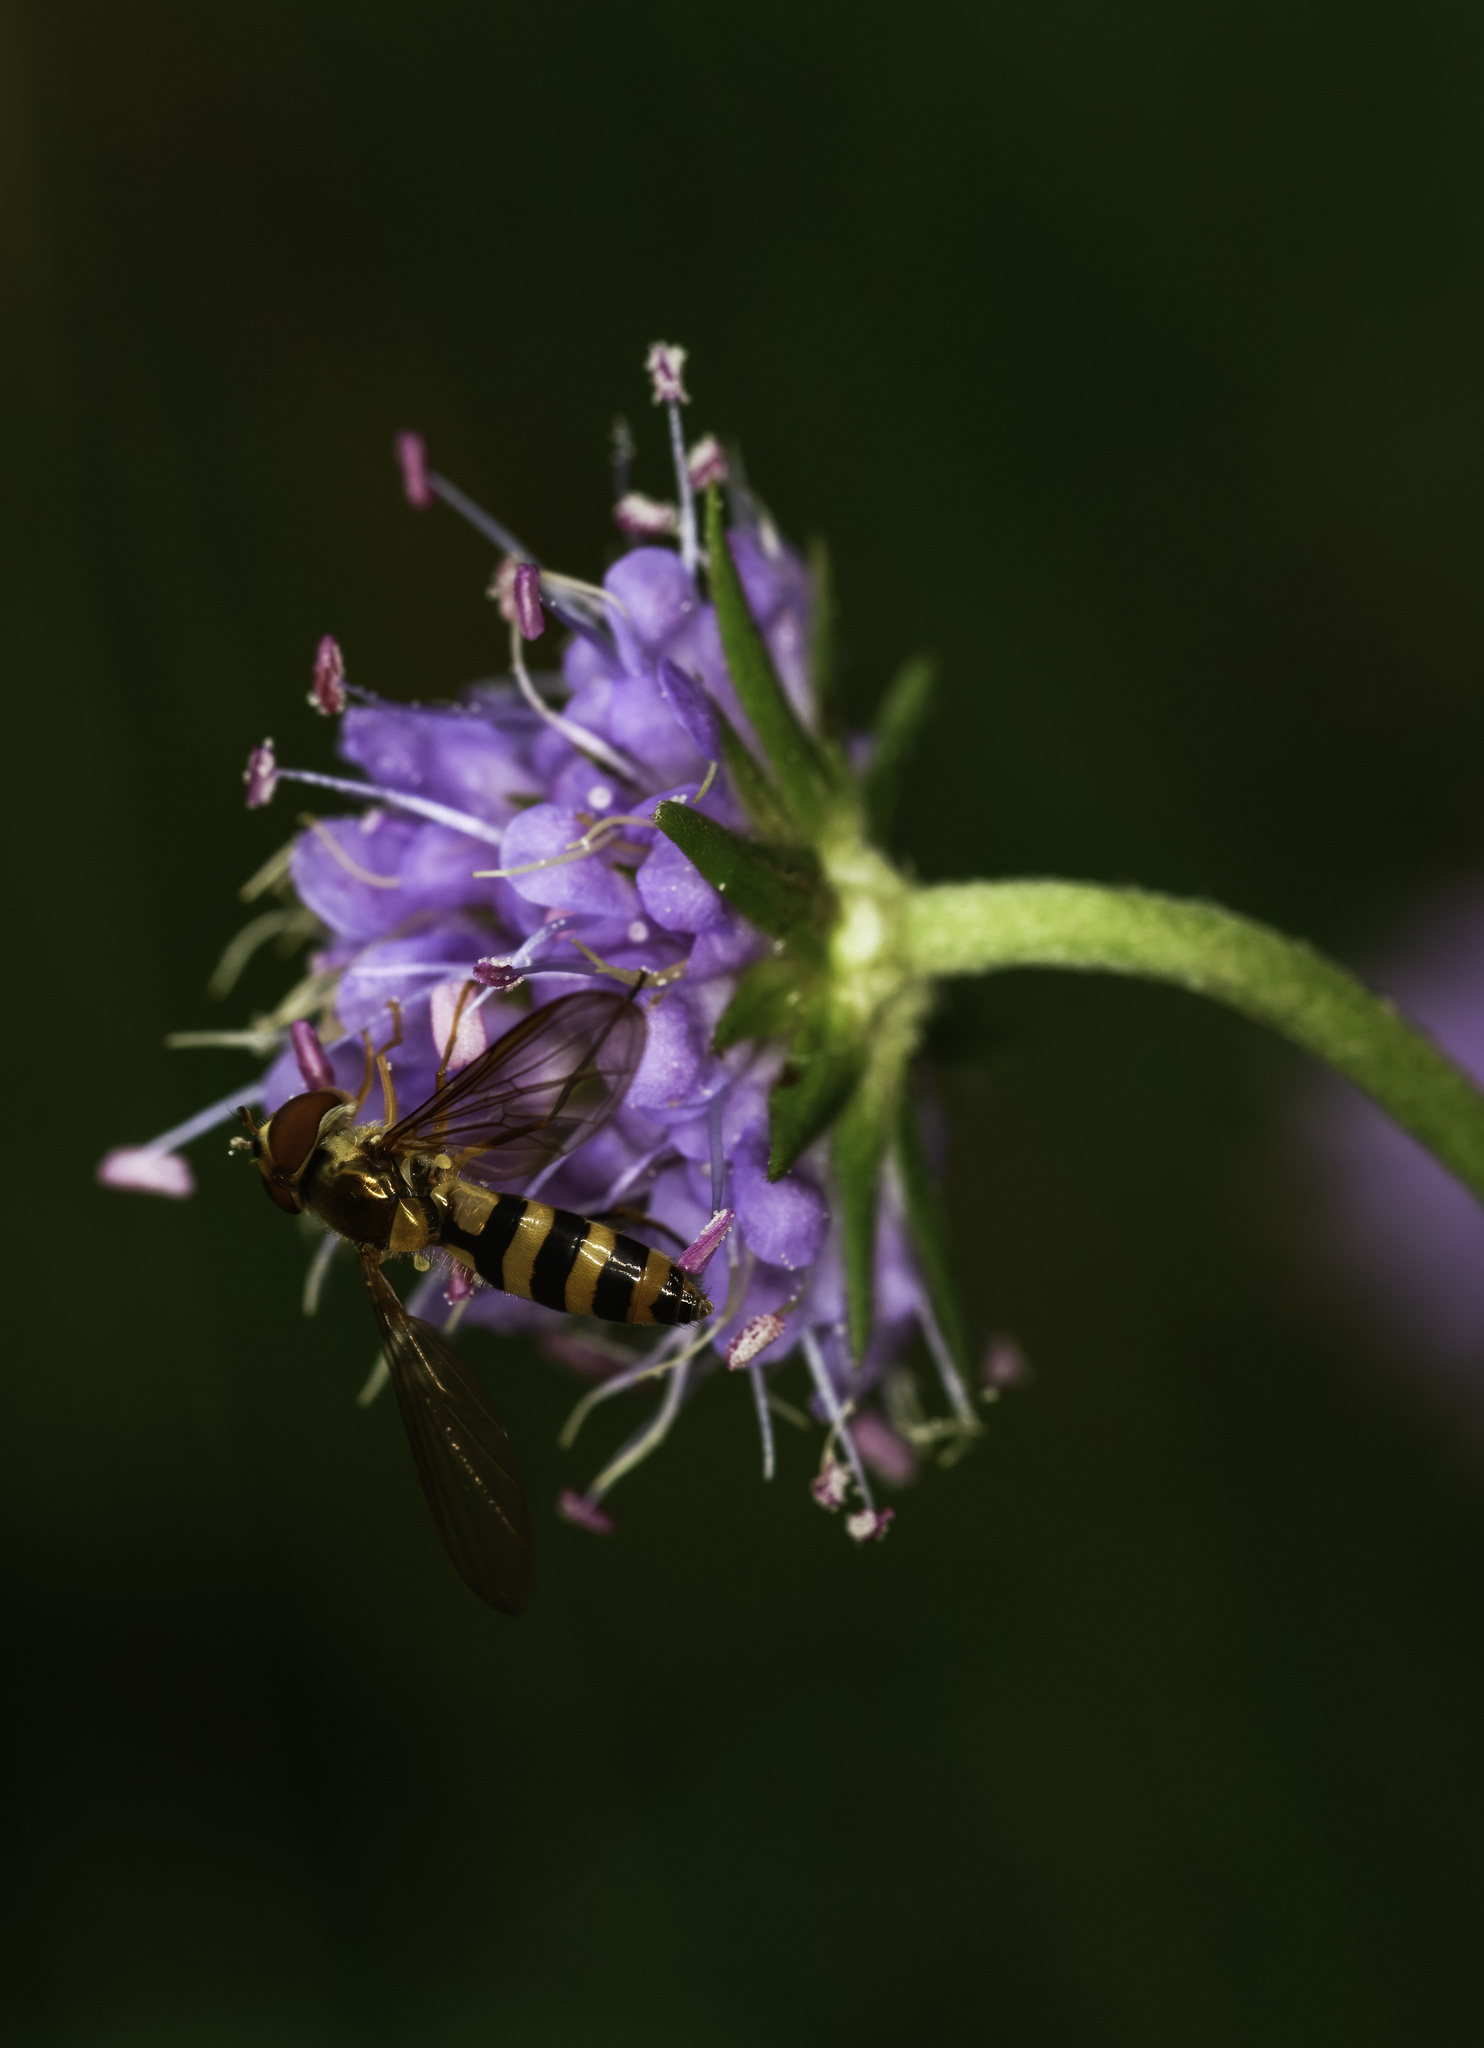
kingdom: Animalia
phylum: Arthropoda
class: Insecta
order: Diptera
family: Syrphidae
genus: Meliscaeva
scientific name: Meliscaeva cinctella
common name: American thintail fly
